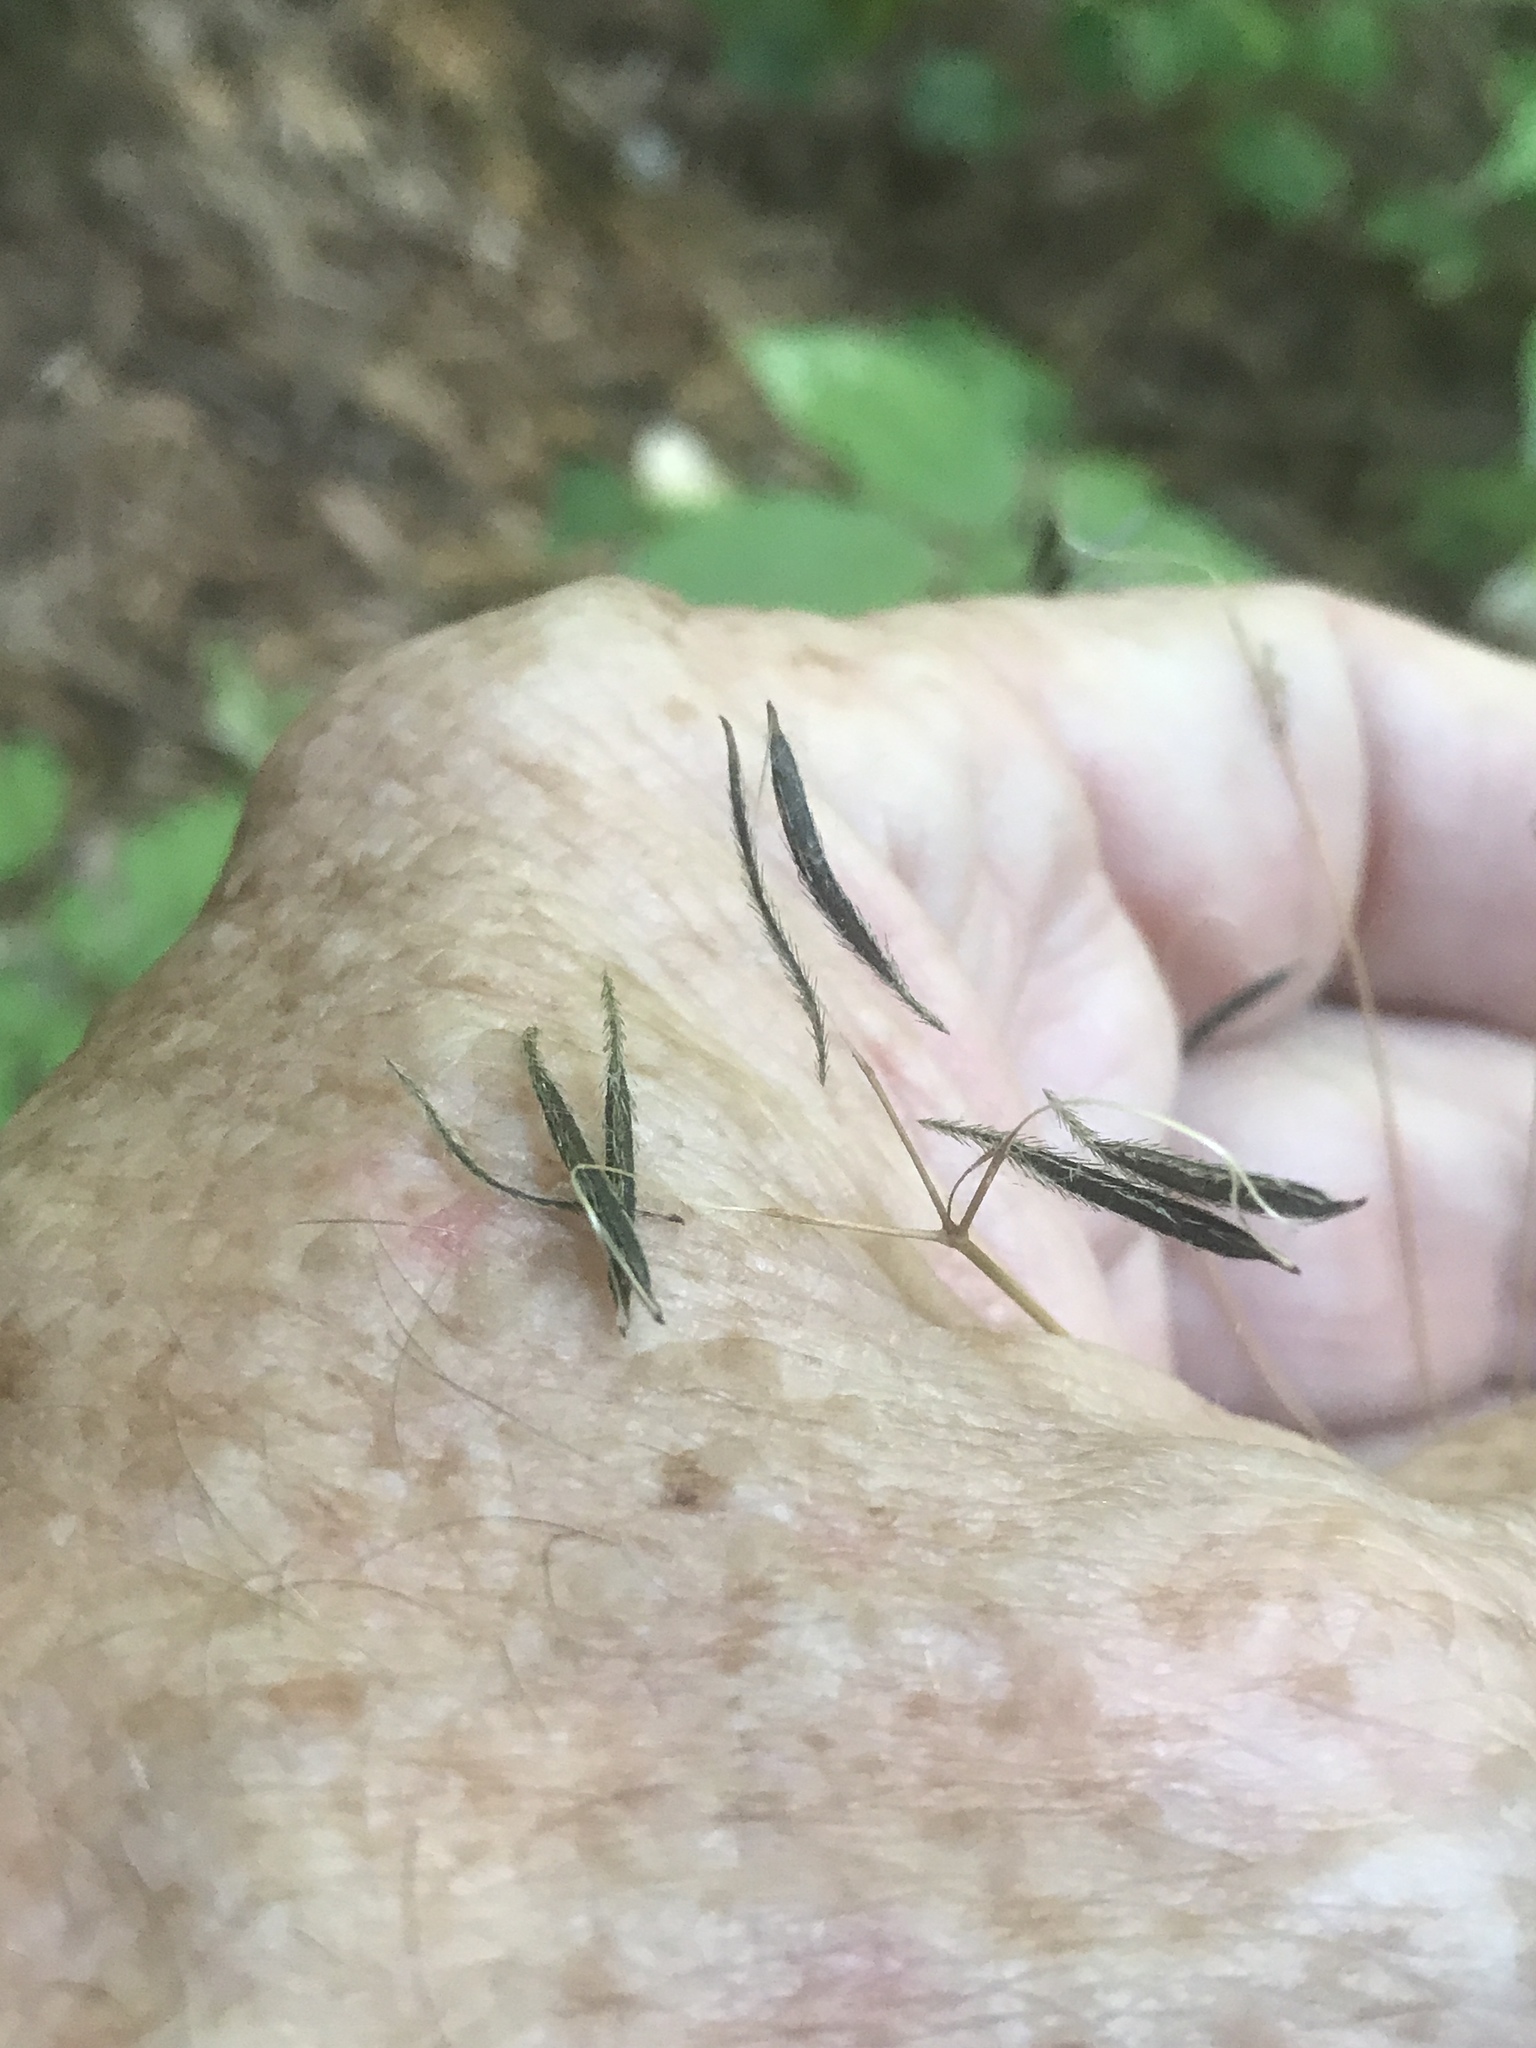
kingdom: Plantae
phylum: Tracheophyta
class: Magnoliopsida
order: Apiales
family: Apiaceae
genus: Osmorhiza
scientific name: Osmorhiza berteroi
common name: Mountain sweet cicely
